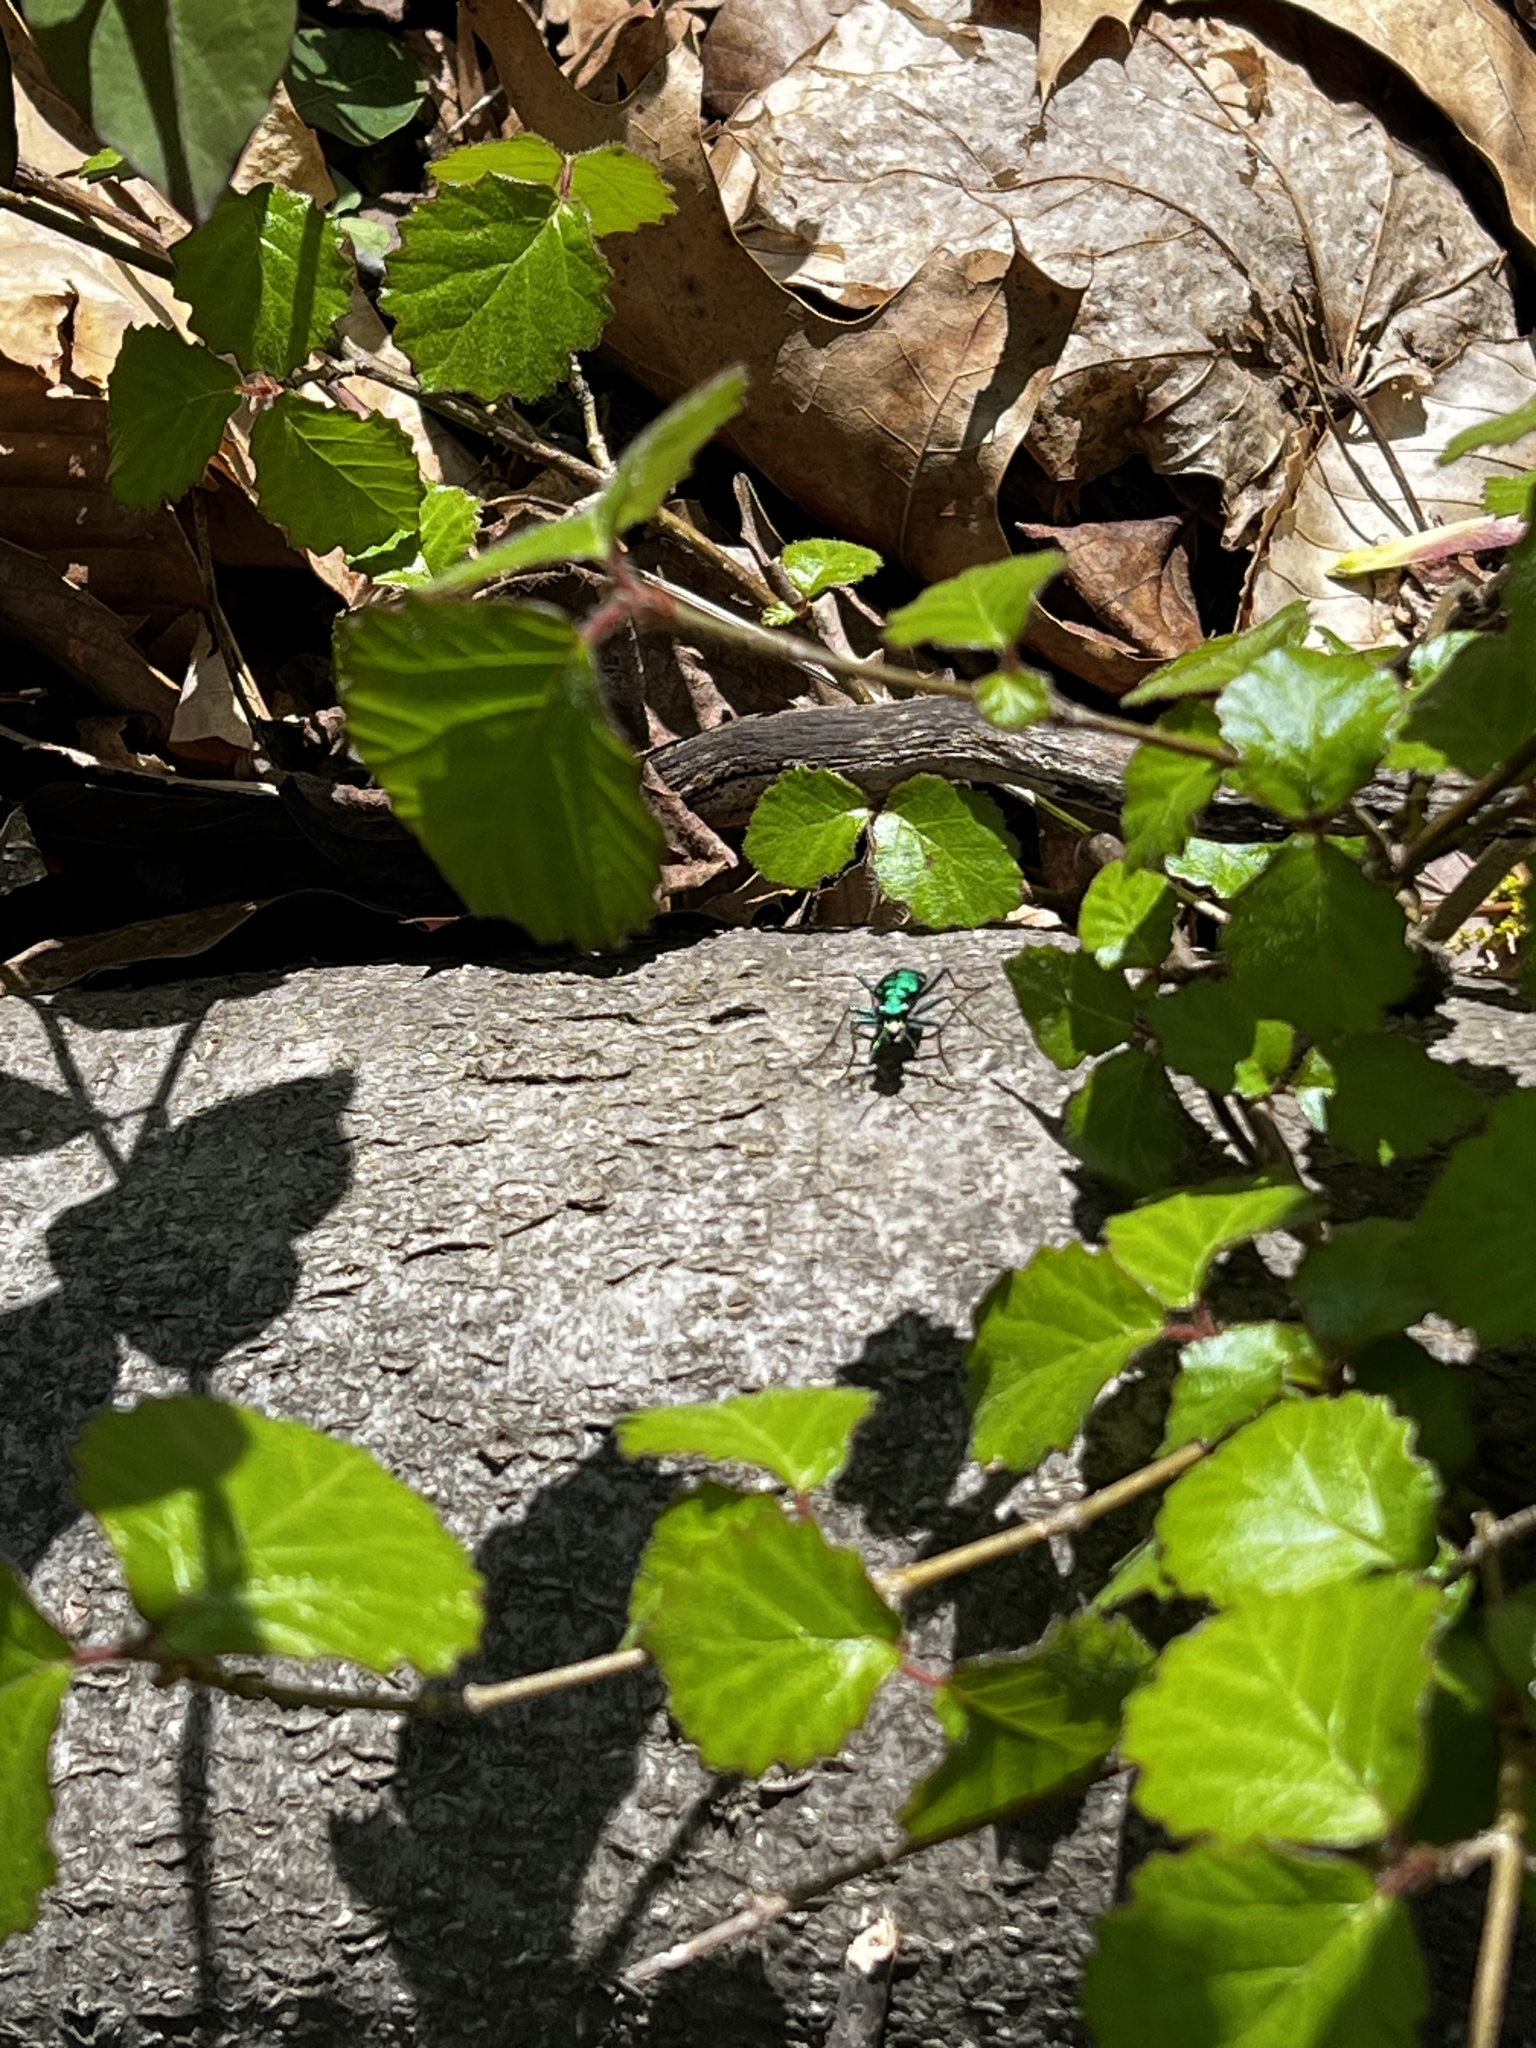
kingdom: Animalia
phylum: Arthropoda
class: Insecta
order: Coleoptera
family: Carabidae
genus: Cicindela
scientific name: Cicindela sexguttata
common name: Six-spotted tiger beetle
